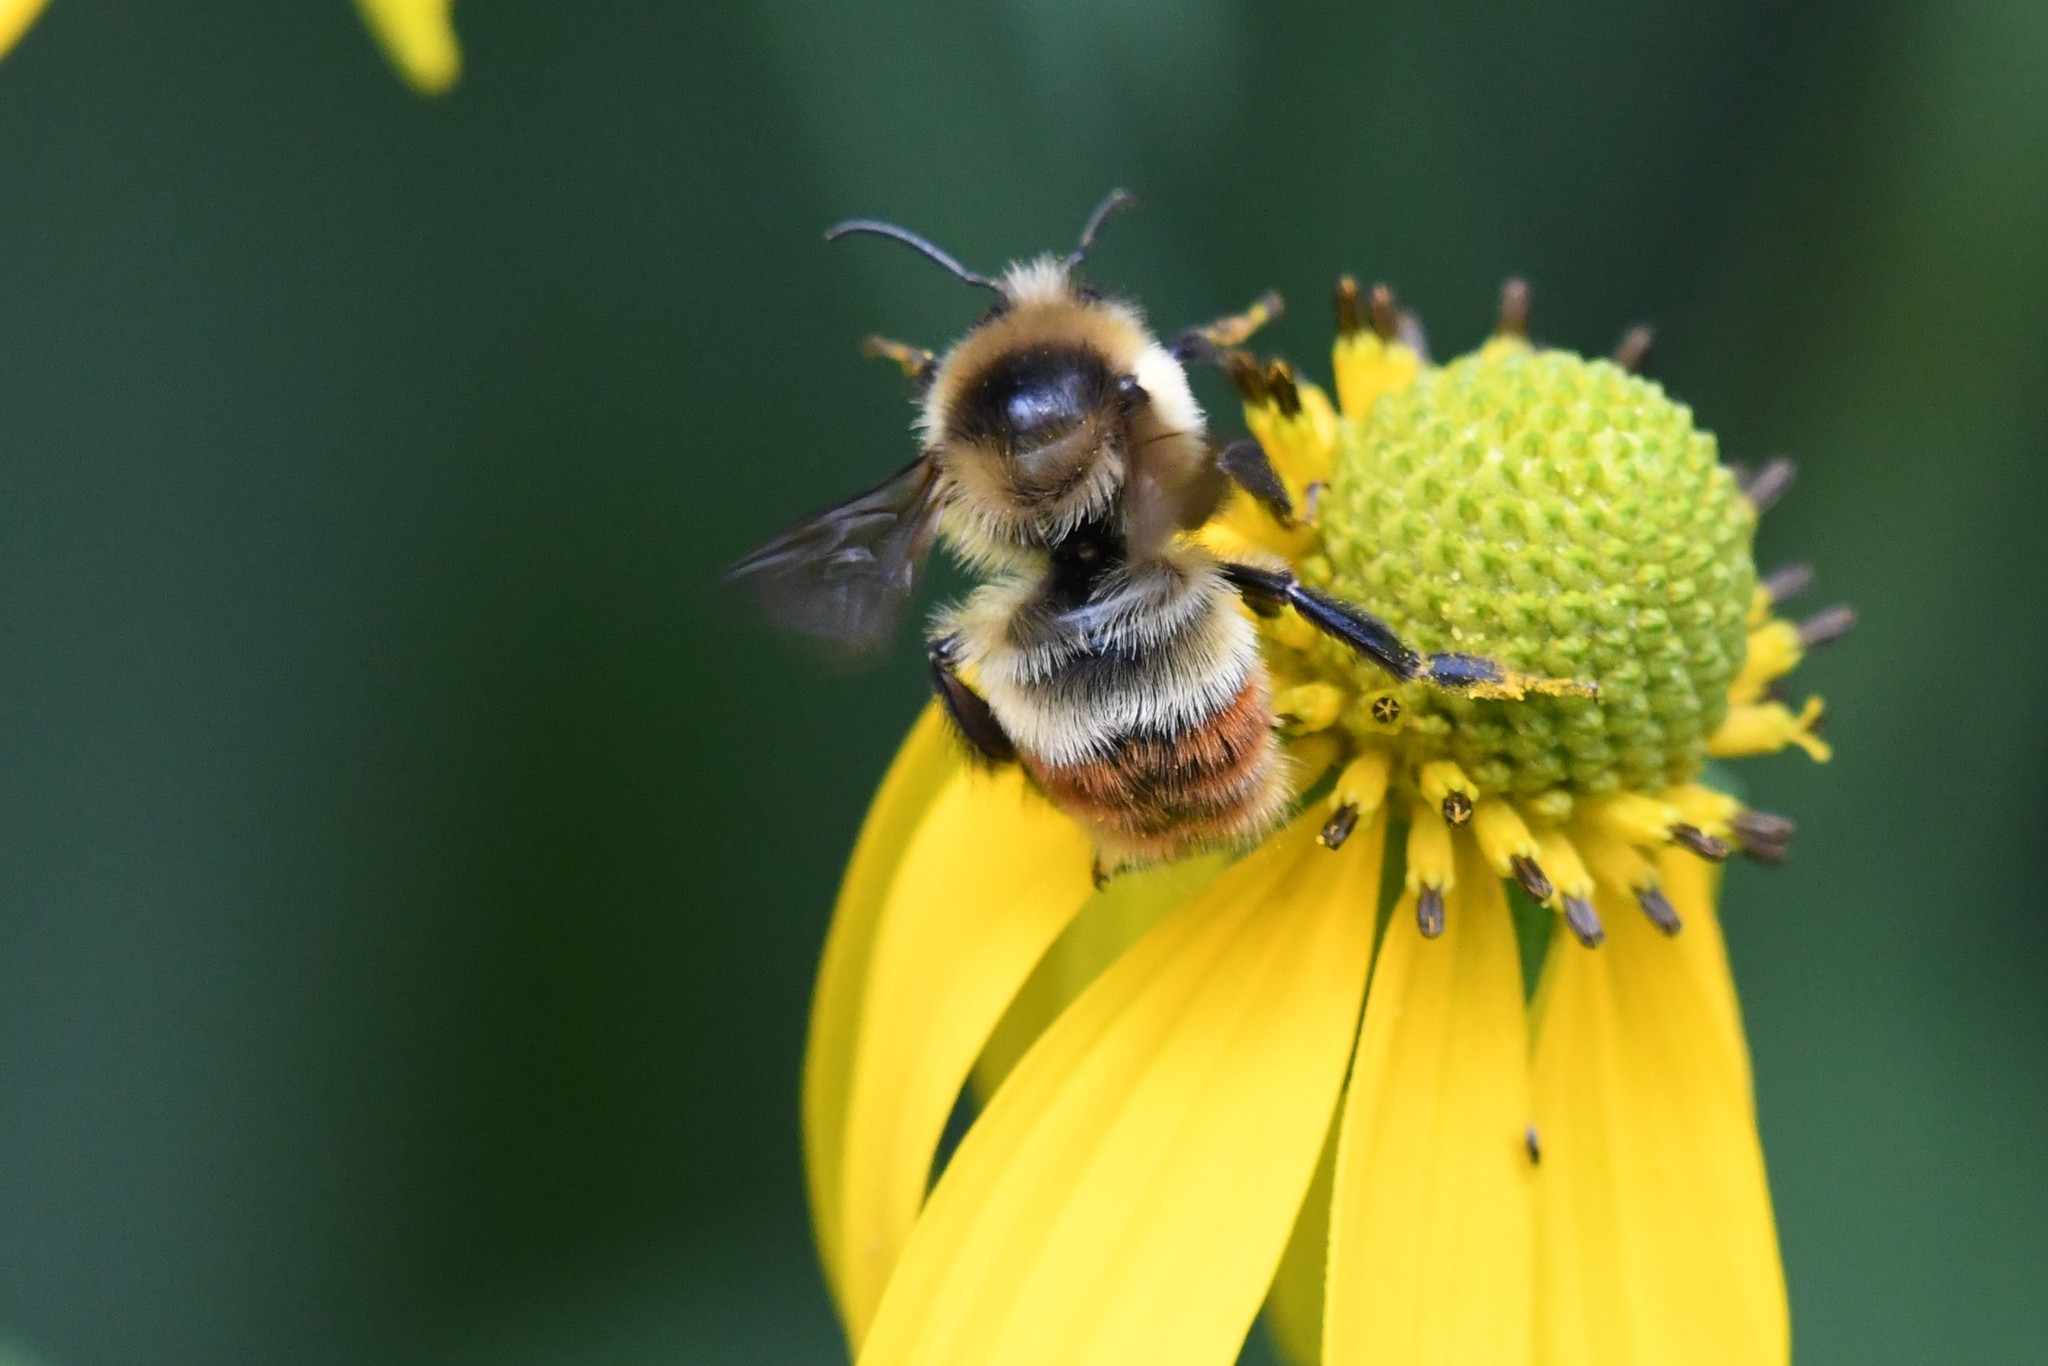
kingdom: Animalia
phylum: Arthropoda
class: Insecta
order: Hymenoptera
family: Apidae
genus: Bombus
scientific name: Bombus rufocinctus
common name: Red-belted bumble bee
